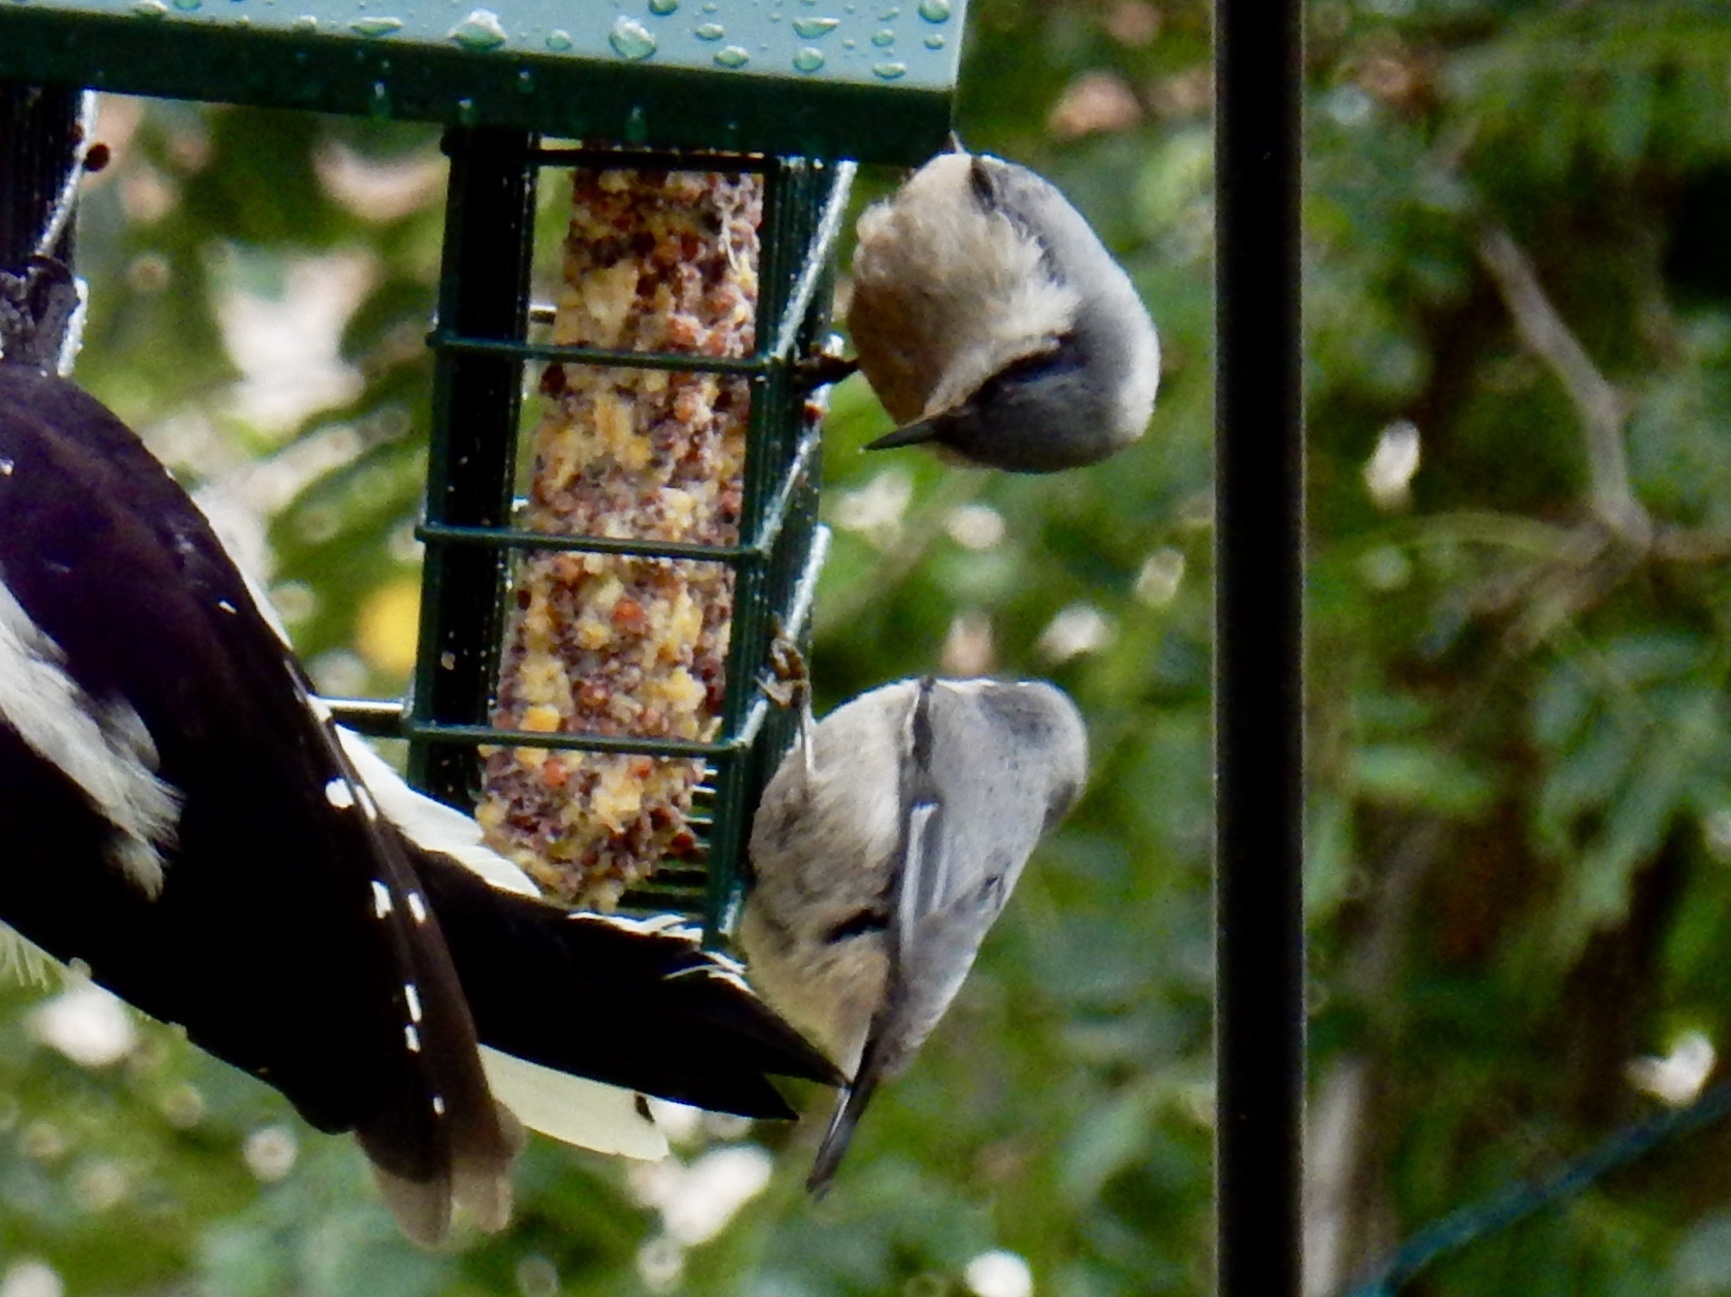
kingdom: Animalia
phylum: Chordata
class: Aves
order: Passeriformes
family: Sittidae
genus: Sitta
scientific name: Sitta pygmaea
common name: Pygmy nuthatch
